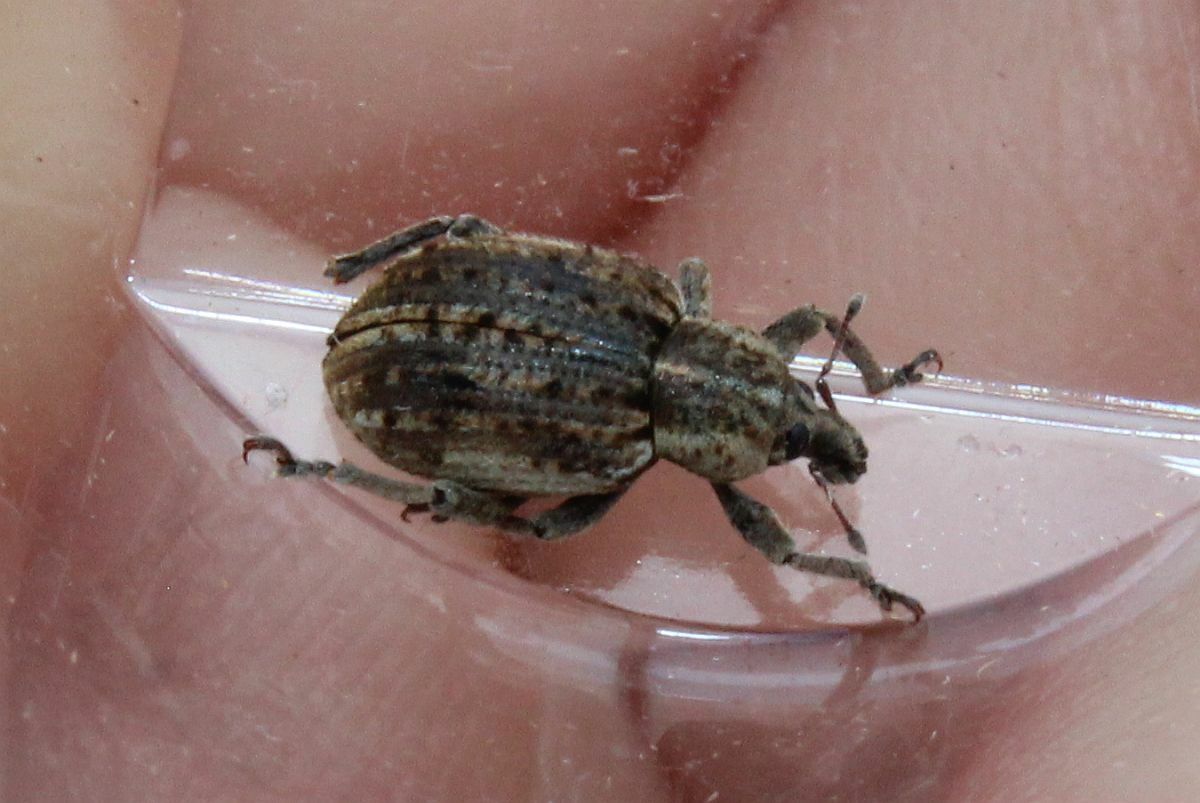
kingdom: Animalia
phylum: Arthropoda
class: Insecta
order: Coleoptera
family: Curculionidae
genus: Brachypera
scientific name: Brachypera zoilus
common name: Clover leaf weevil
